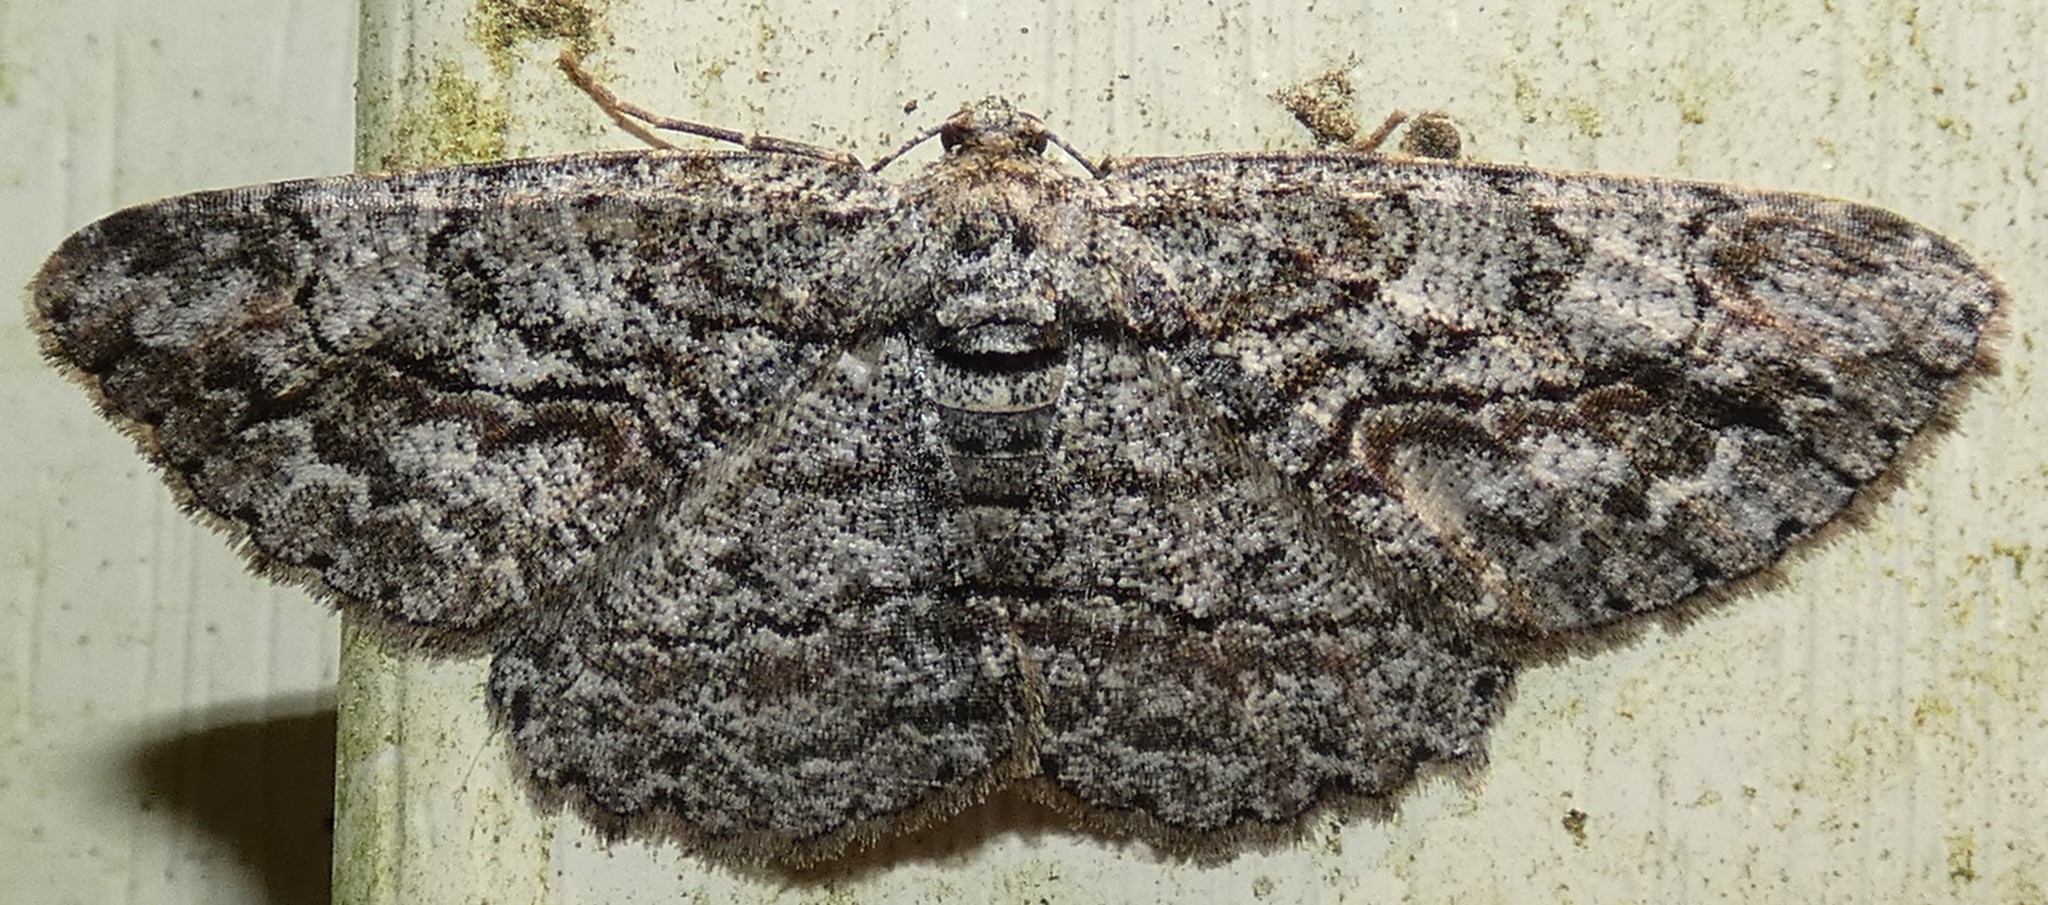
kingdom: Animalia
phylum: Arthropoda
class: Insecta
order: Lepidoptera
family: Geometridae
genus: Anavitrinella
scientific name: Anavitrinella pampinaria
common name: Common gray
